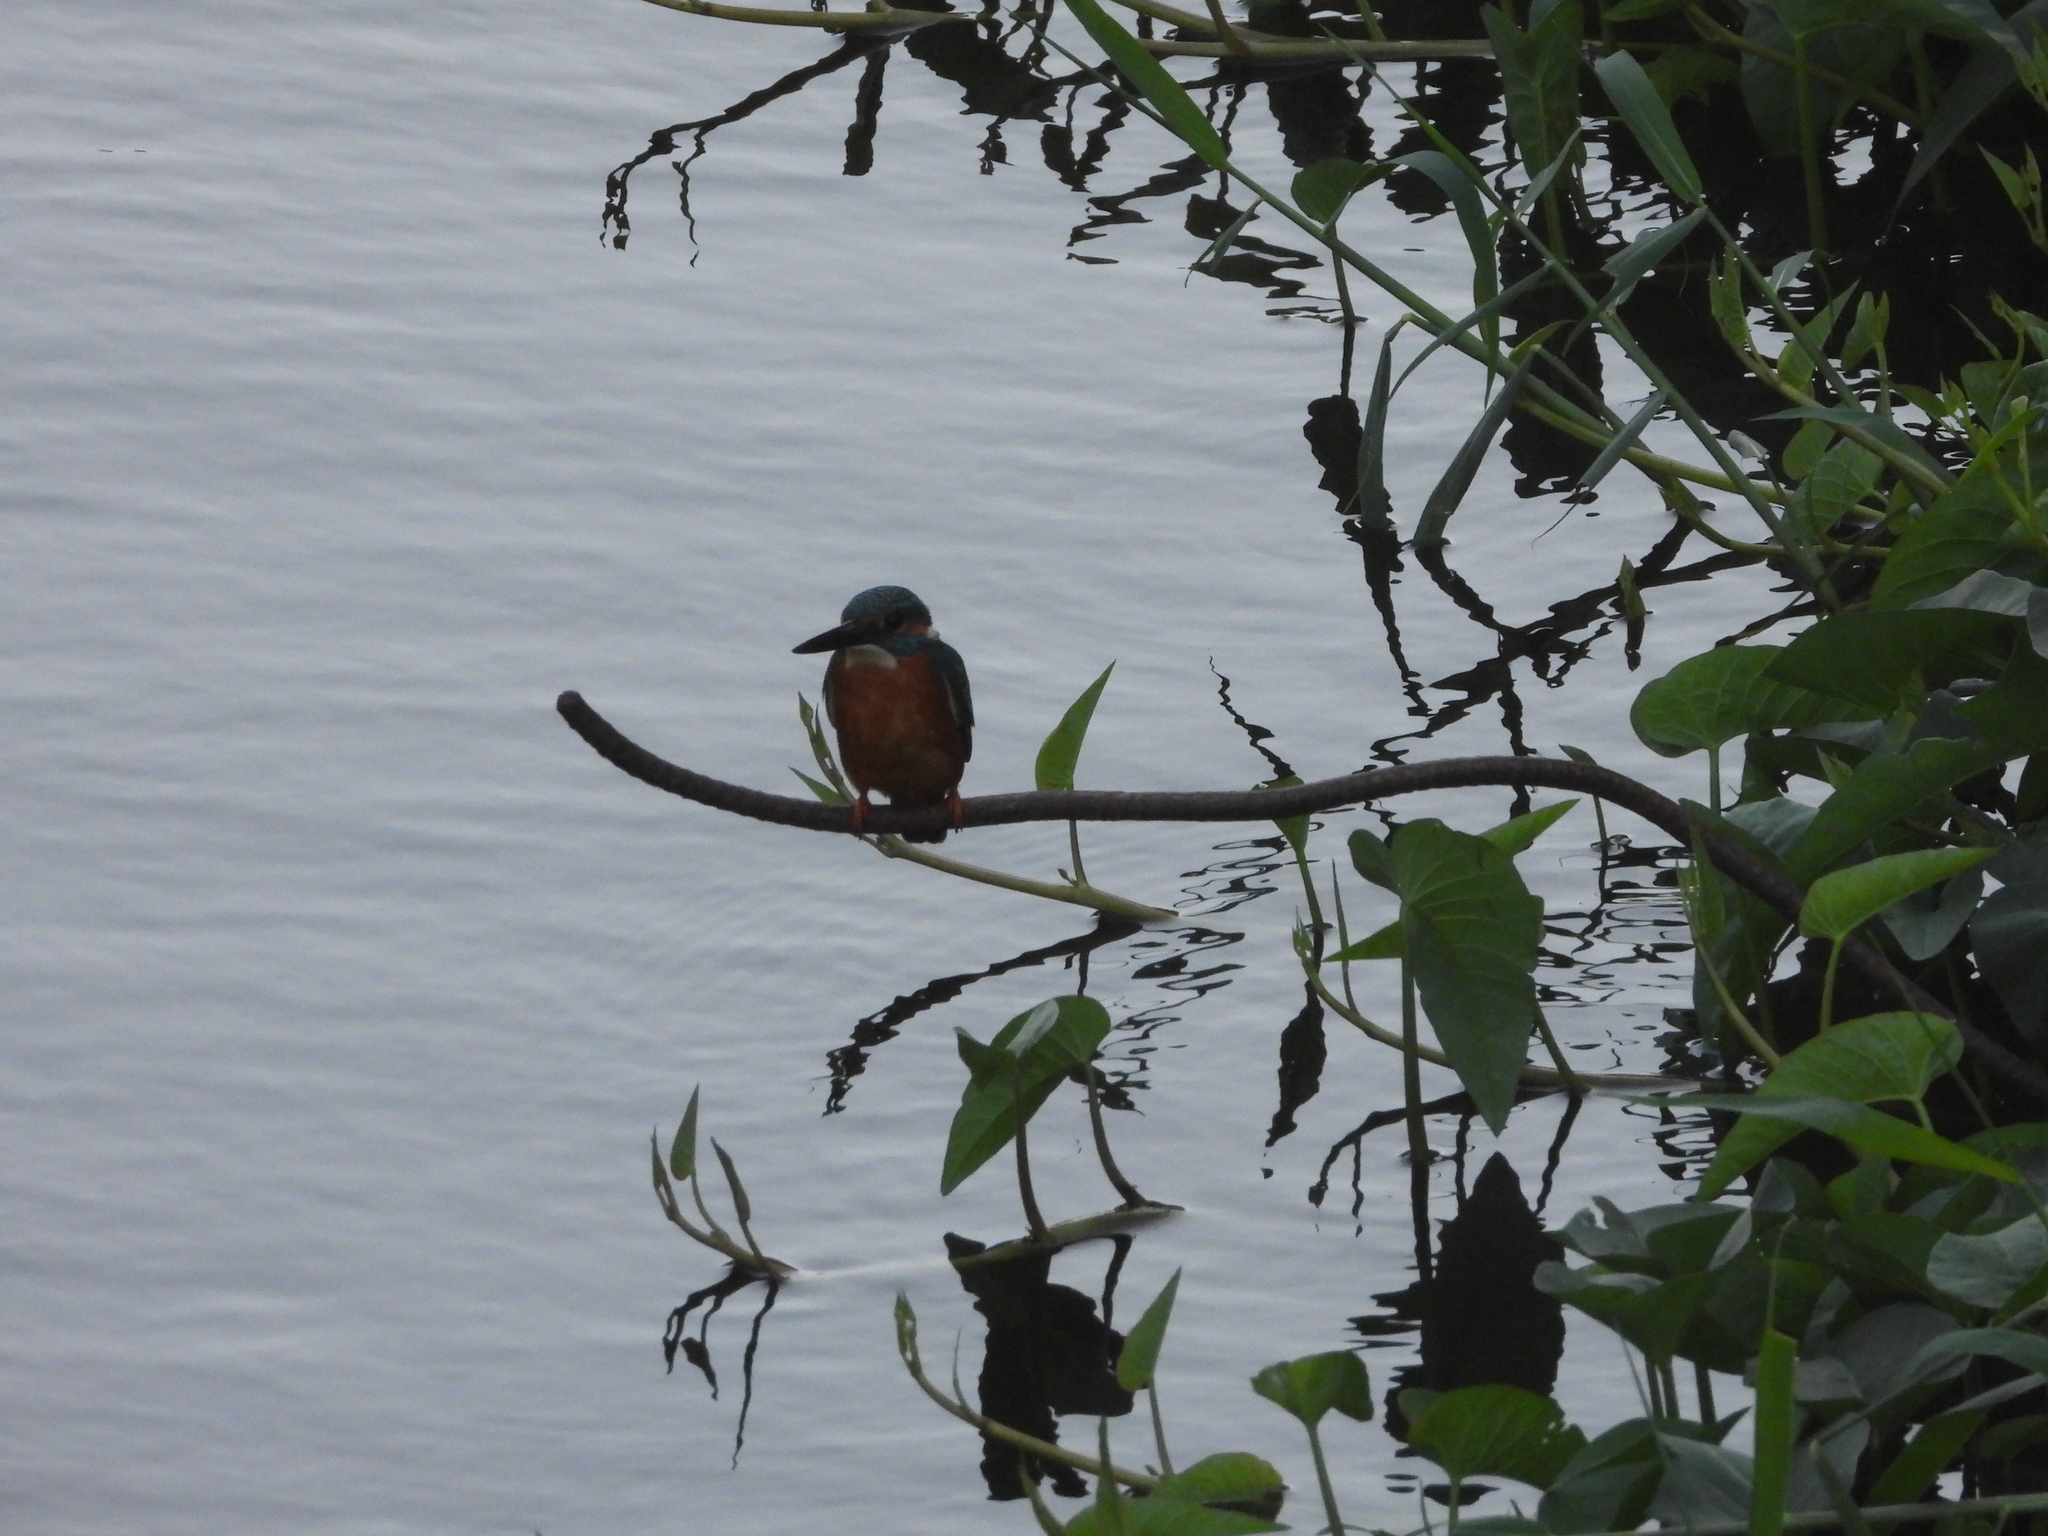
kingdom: Animalia
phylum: Chordata
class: Aves
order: Coraciiformes
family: Alcedinidae
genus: Alcedo
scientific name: Alcedo atthis
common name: Common kingfisher
